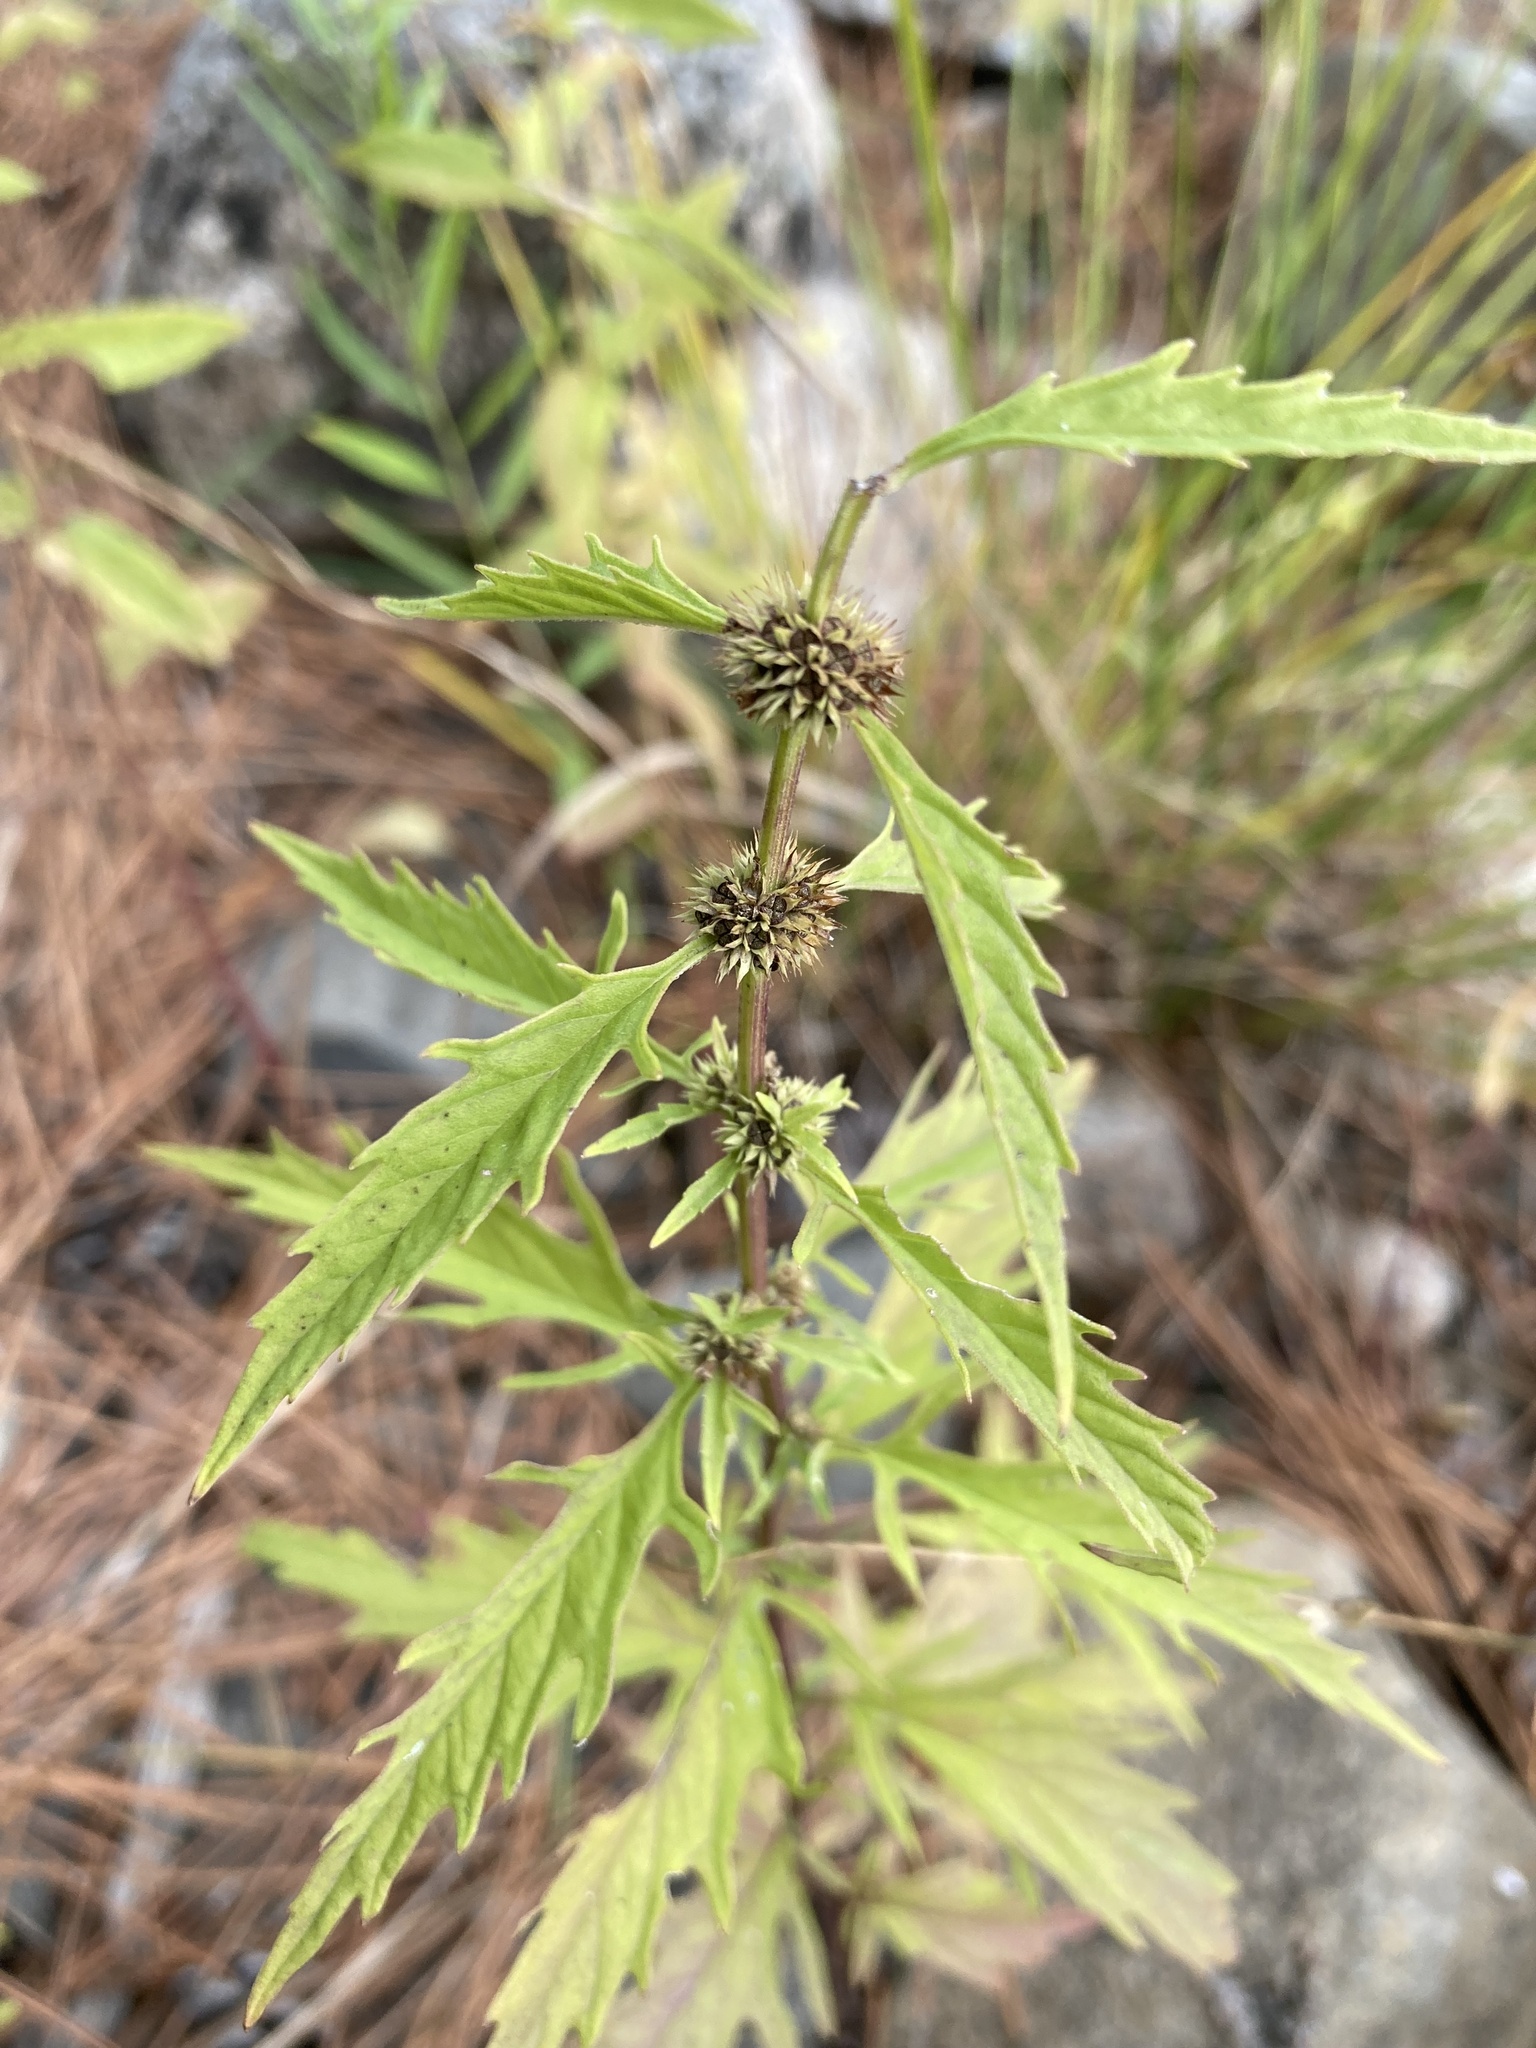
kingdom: Plantae
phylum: Tracheophyta
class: Magnoliopsida
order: Lamiales
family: Lamiaceae
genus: Lycopus
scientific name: Lycopus americanus
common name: American bugleweed
